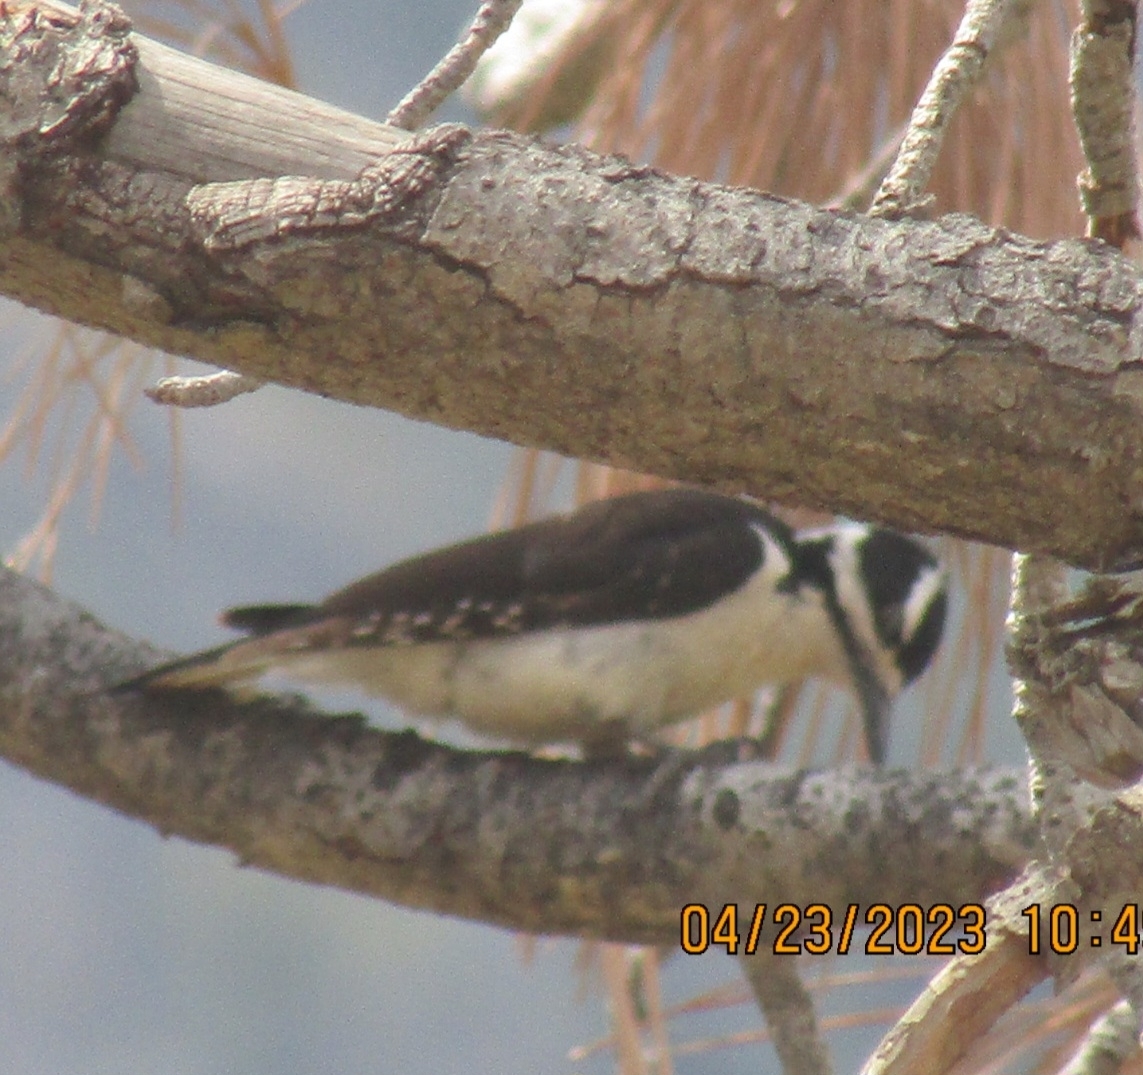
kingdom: Animalia
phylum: Chordata
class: Aves
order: Piciformes
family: Picidae
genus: Leuconotopicus
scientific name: Leuconotopicus villosus
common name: Hairy woodpecker
